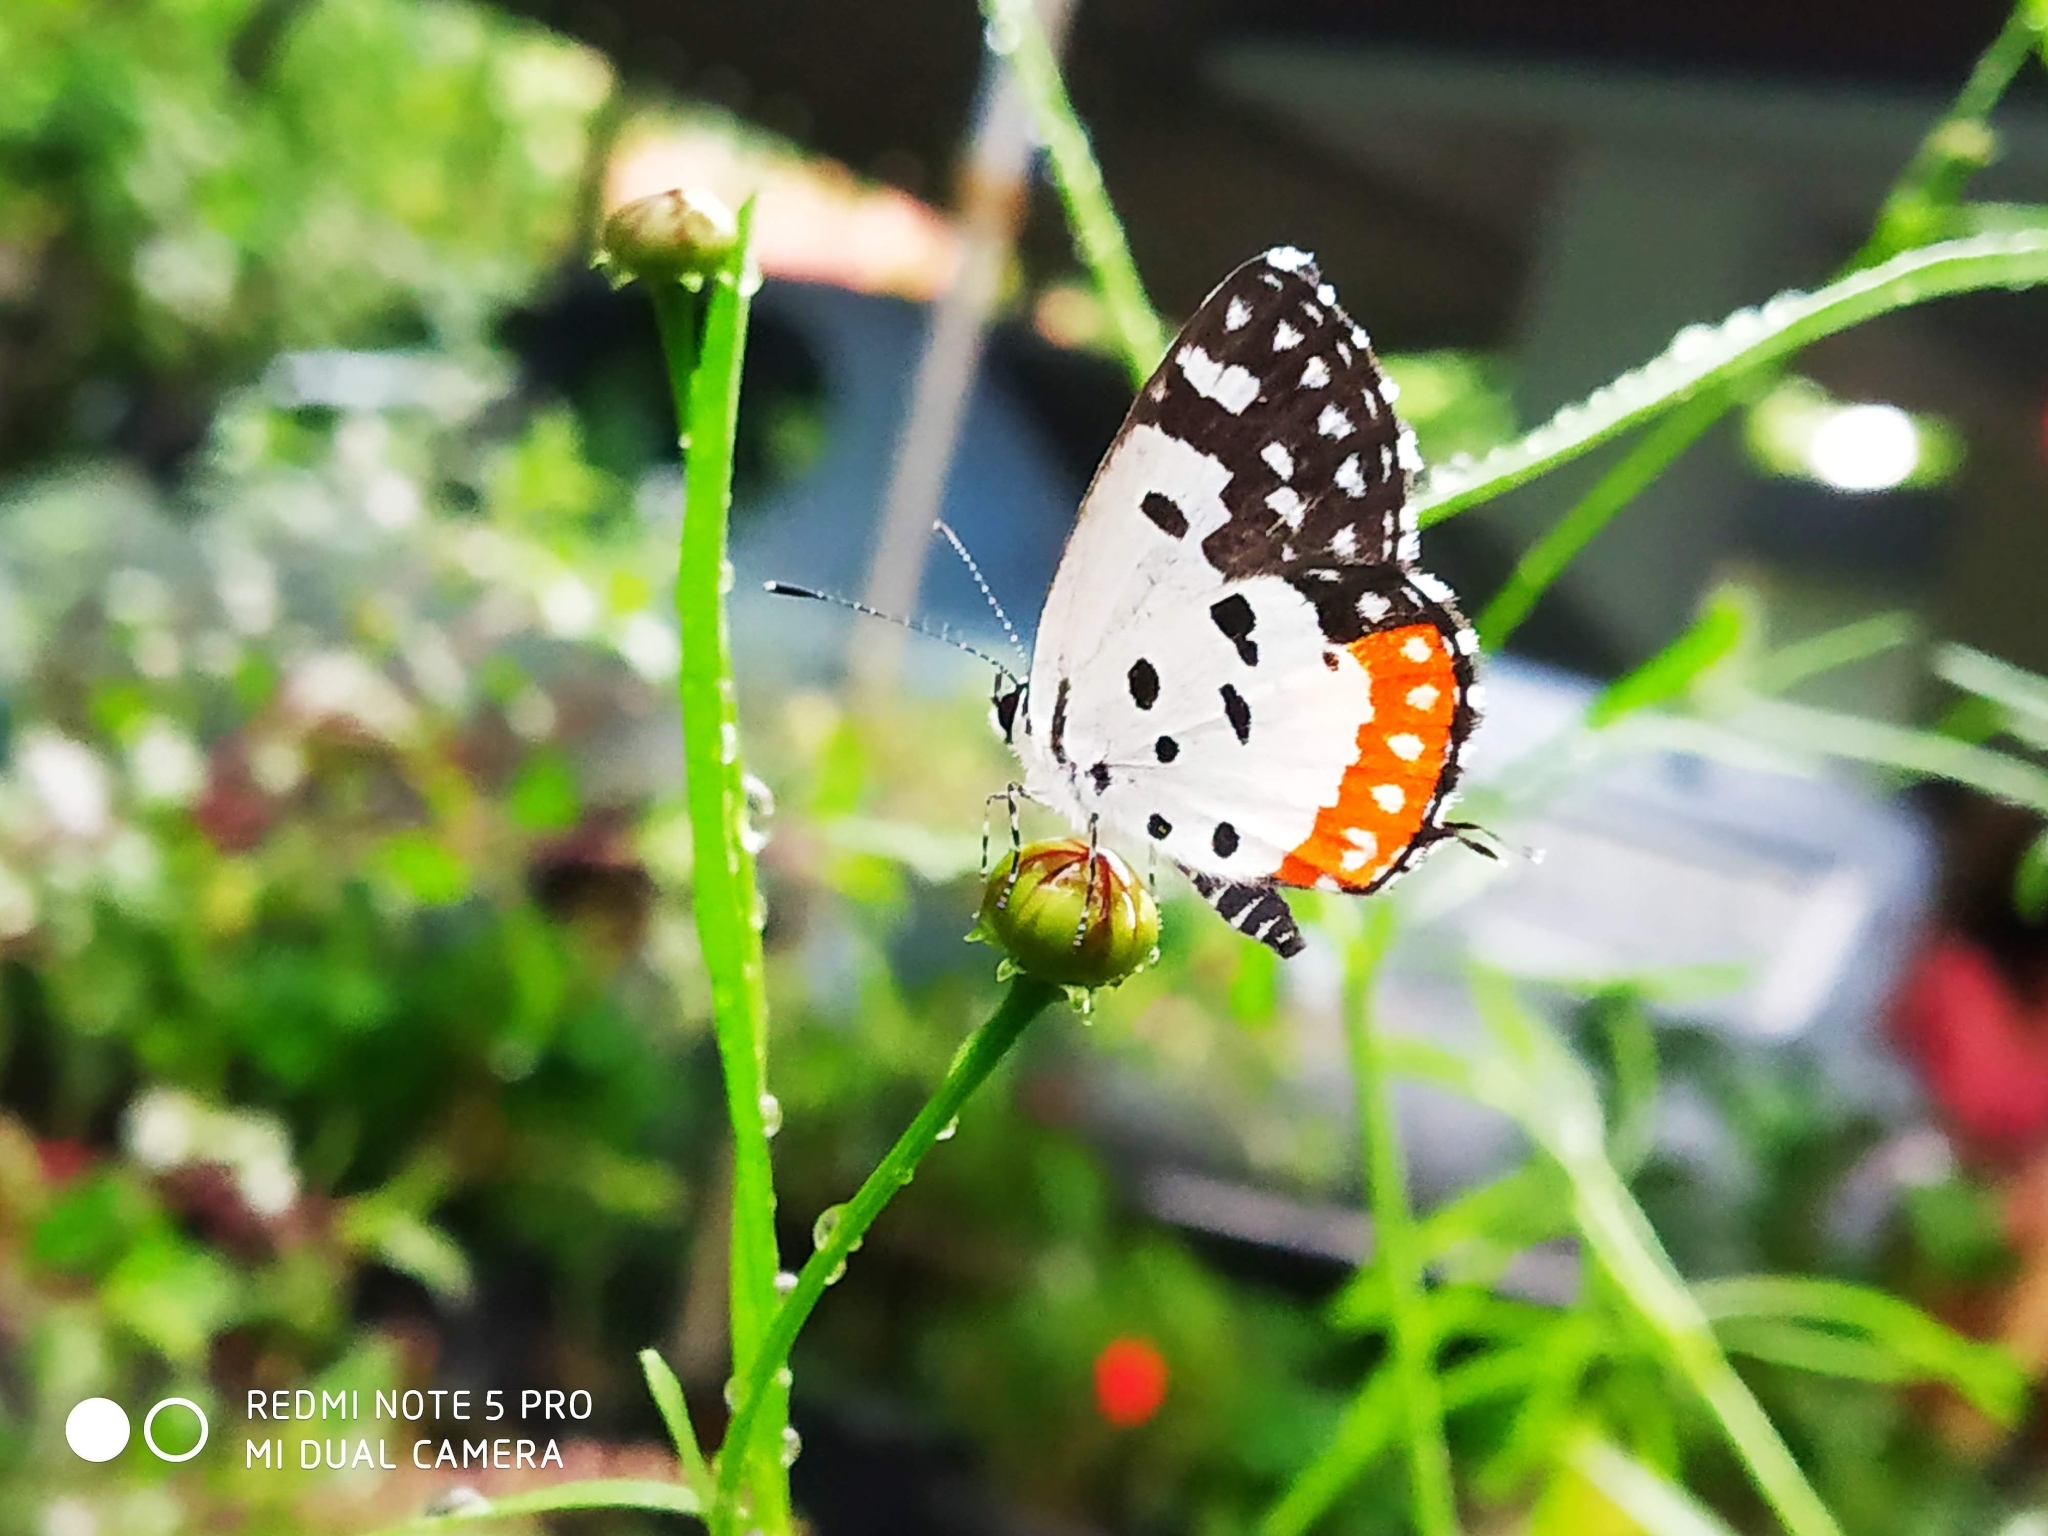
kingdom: Animalia
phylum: Arthropoda
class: Insecta
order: Lepidoptera
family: Lycaenidae
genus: Talicada
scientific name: Talicada nyseus
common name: Red pierrot
